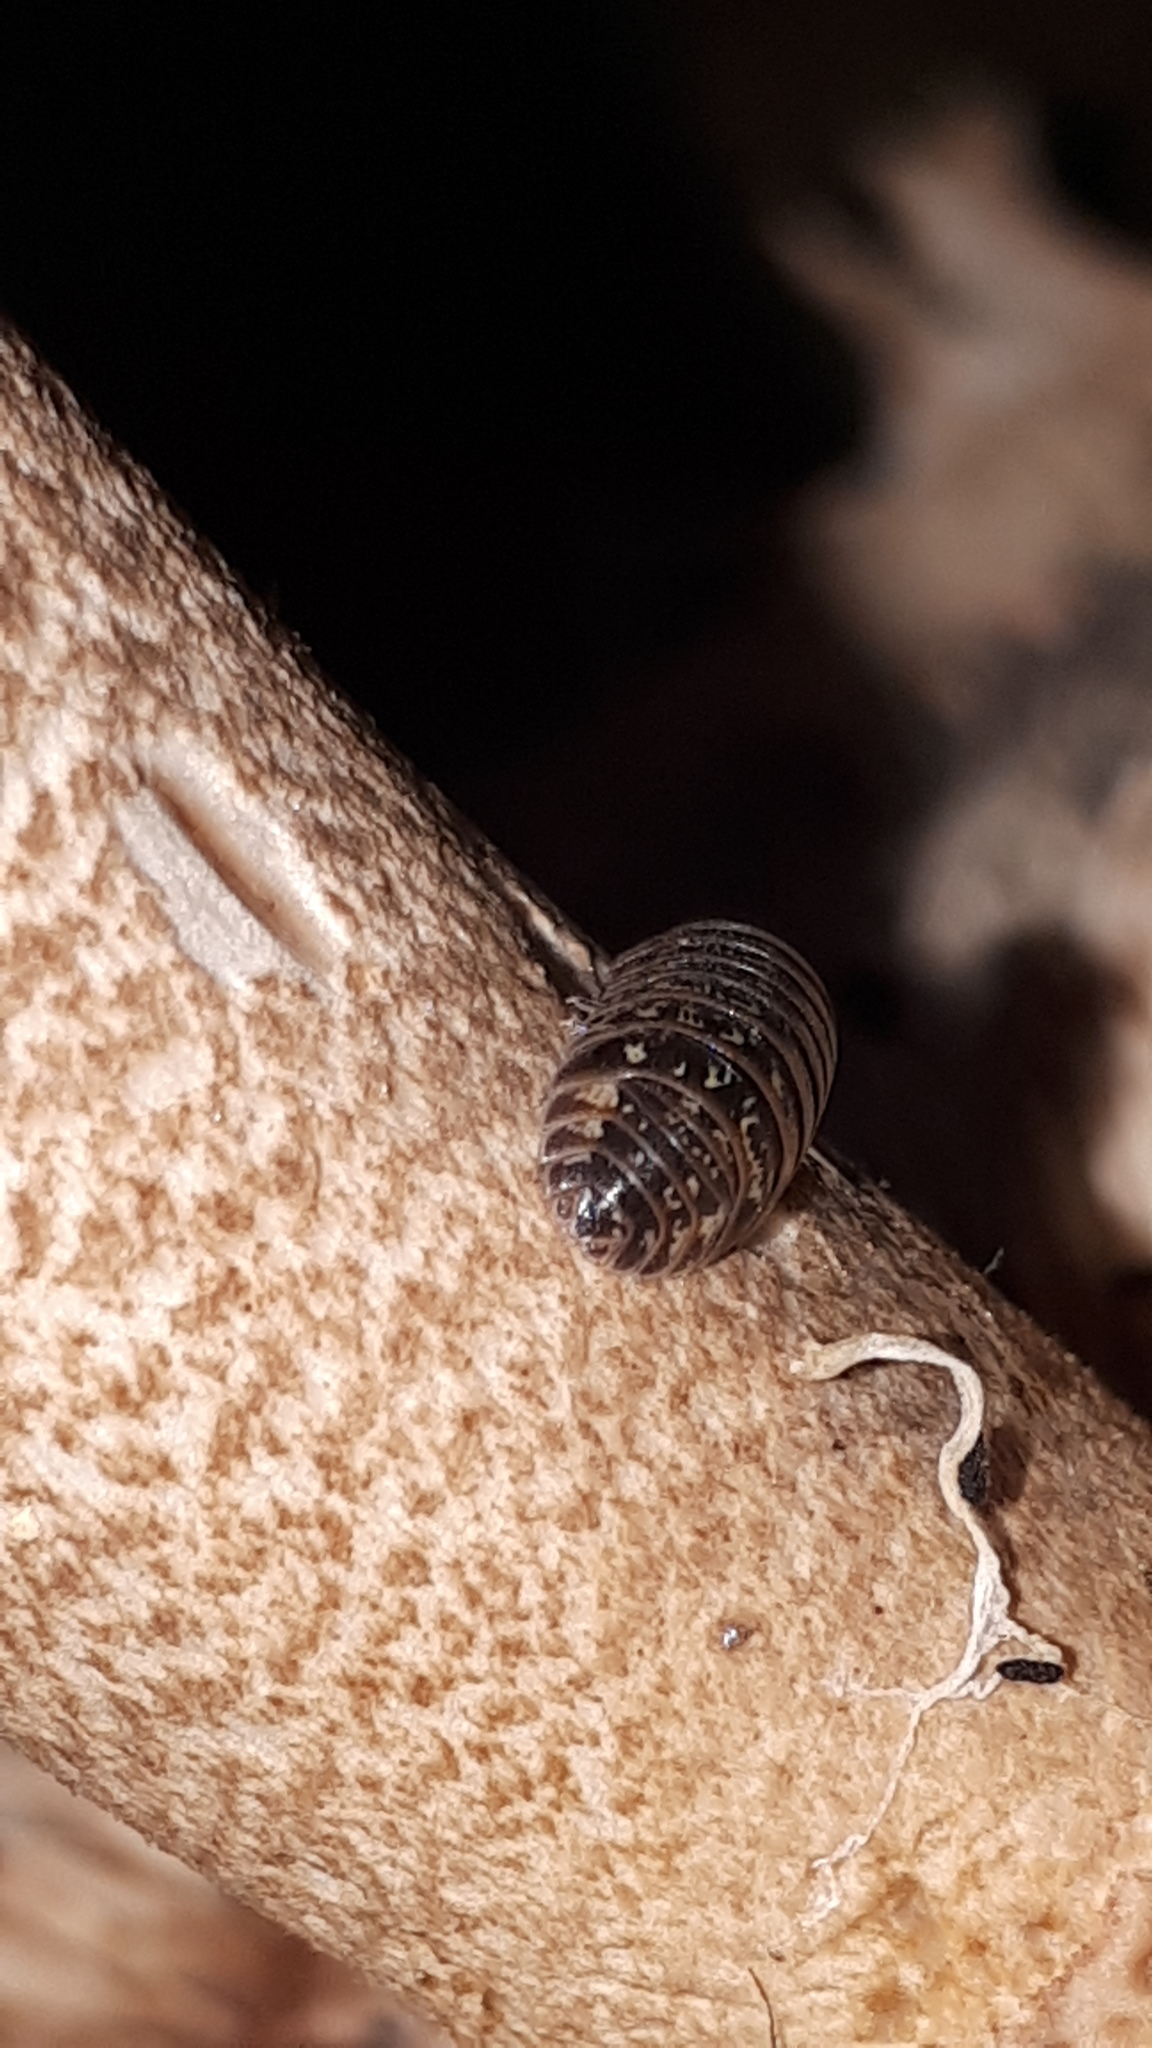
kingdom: Animalia
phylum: Arthropoda
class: Malacostraca
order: Isopoda
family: Armadillidiidae
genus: Armadillidium
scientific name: Armadillidium pictum
